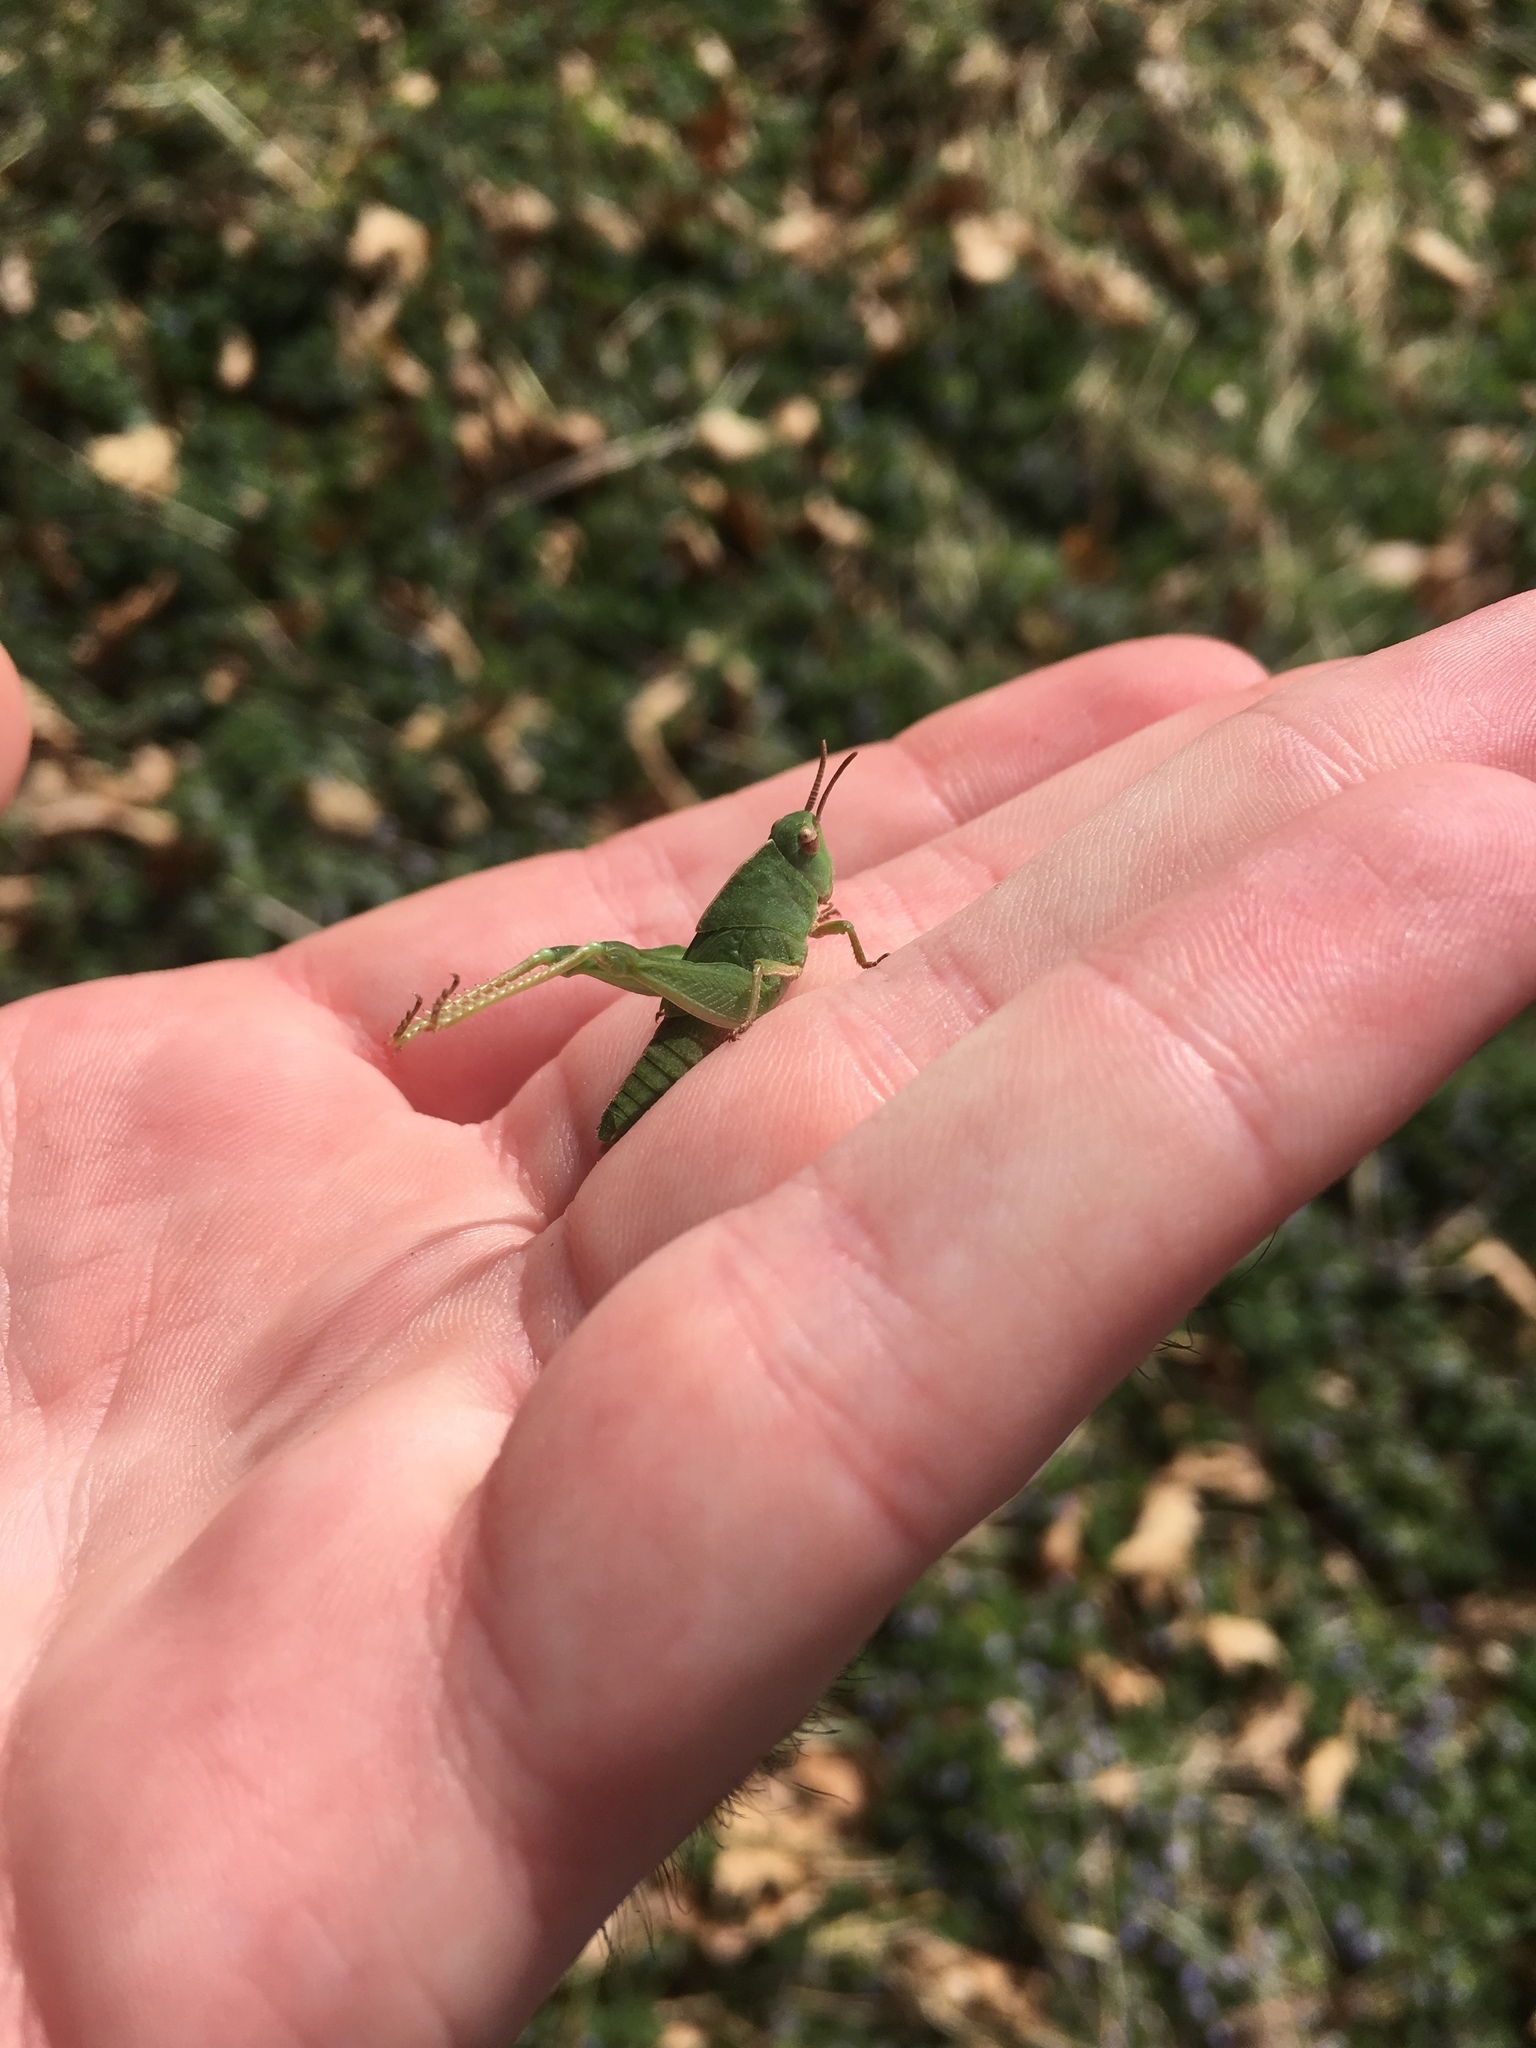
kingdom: Animalia
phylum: Arthropoda
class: Insecta
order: Orthoptera
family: Acrididae
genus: Chortophaga
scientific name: Chortophaga viridifasciata
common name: Green-striped grasshopper
